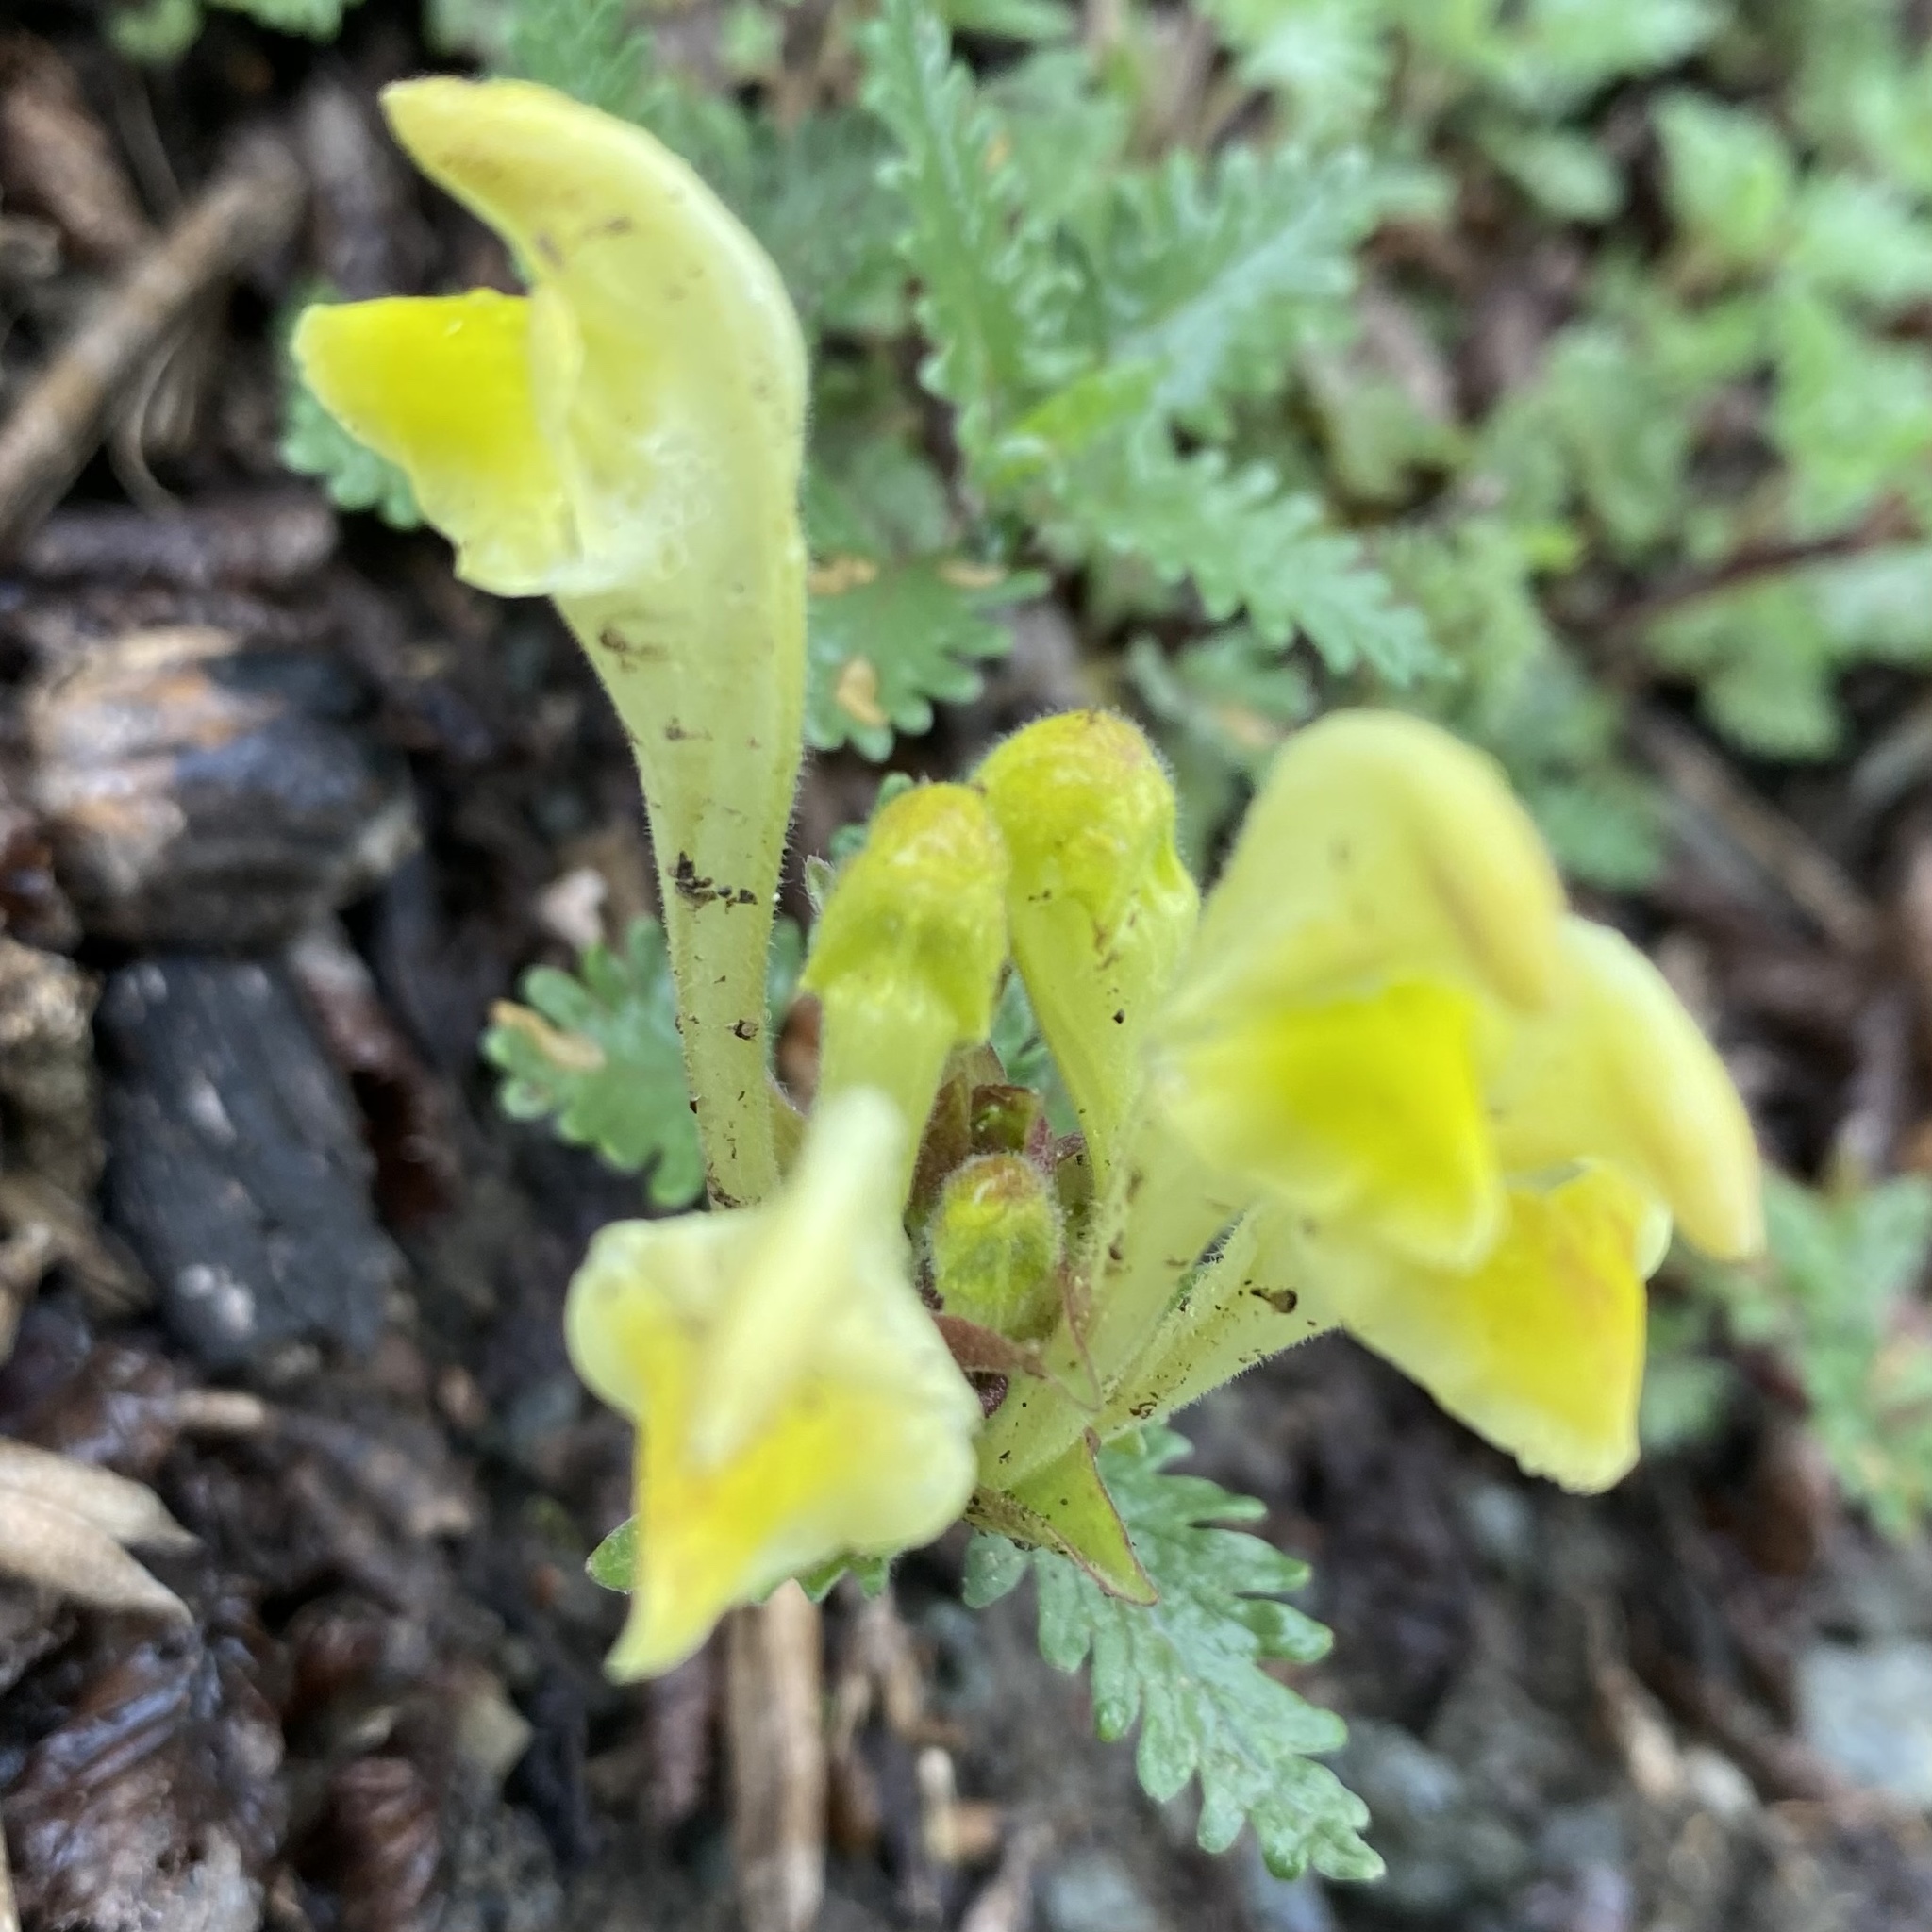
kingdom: Plantae
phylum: Tracheophyta
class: Magnoliopsida
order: Lamiales
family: Lamiaceae
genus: Scutellaria
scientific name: Scutellaria orientalis
